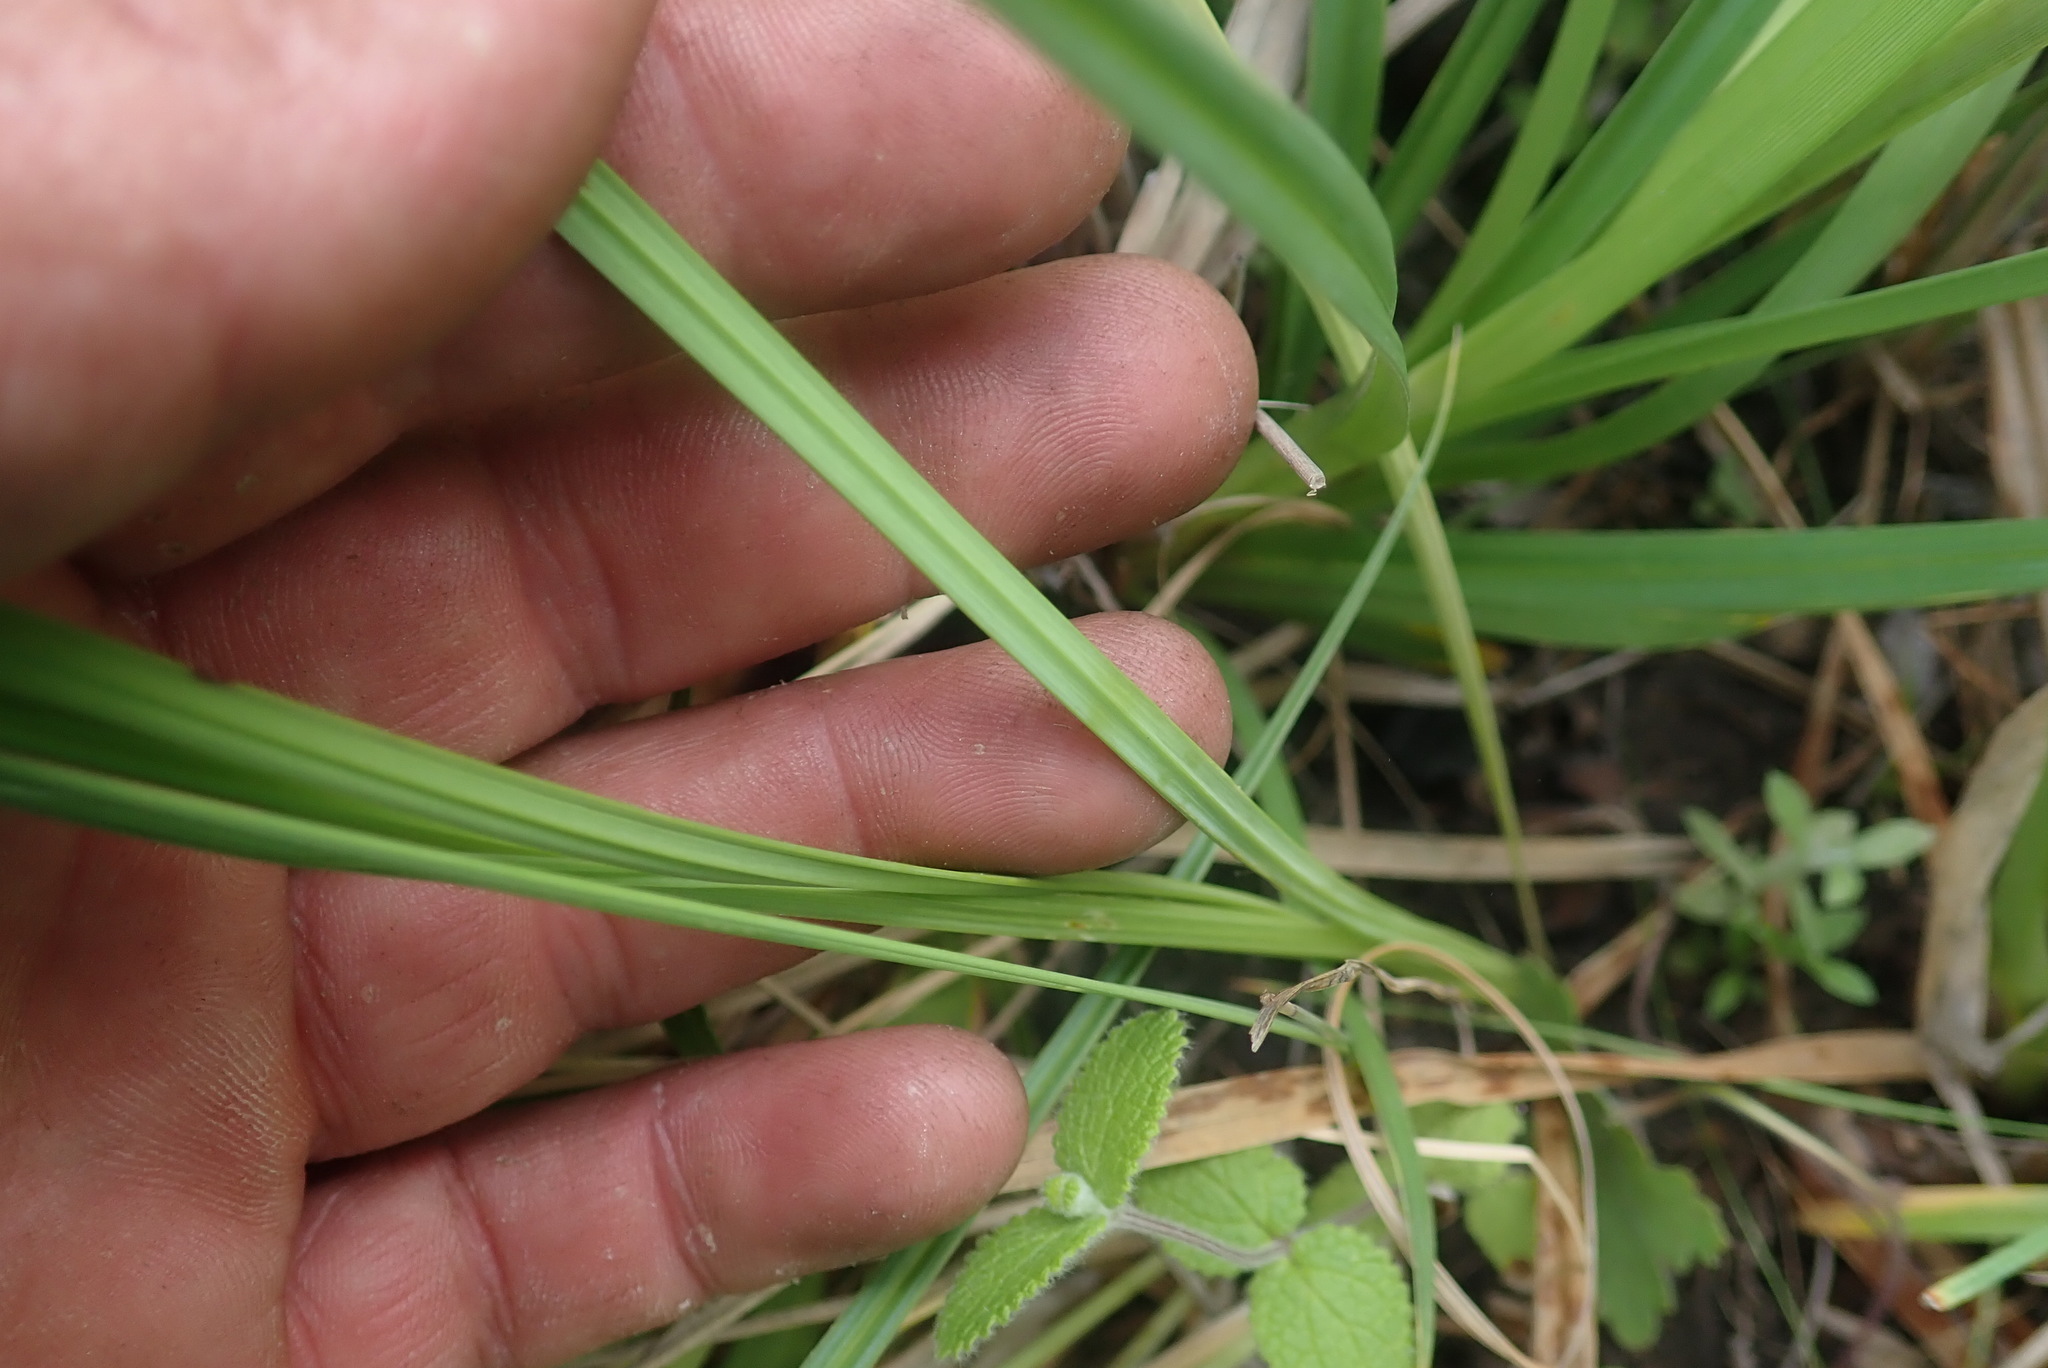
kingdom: Plantae
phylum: Tracheophyta
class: Liliopsida
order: Asparagales
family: Iridaceae
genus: Hesperantha
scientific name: Hesperantha radiata
